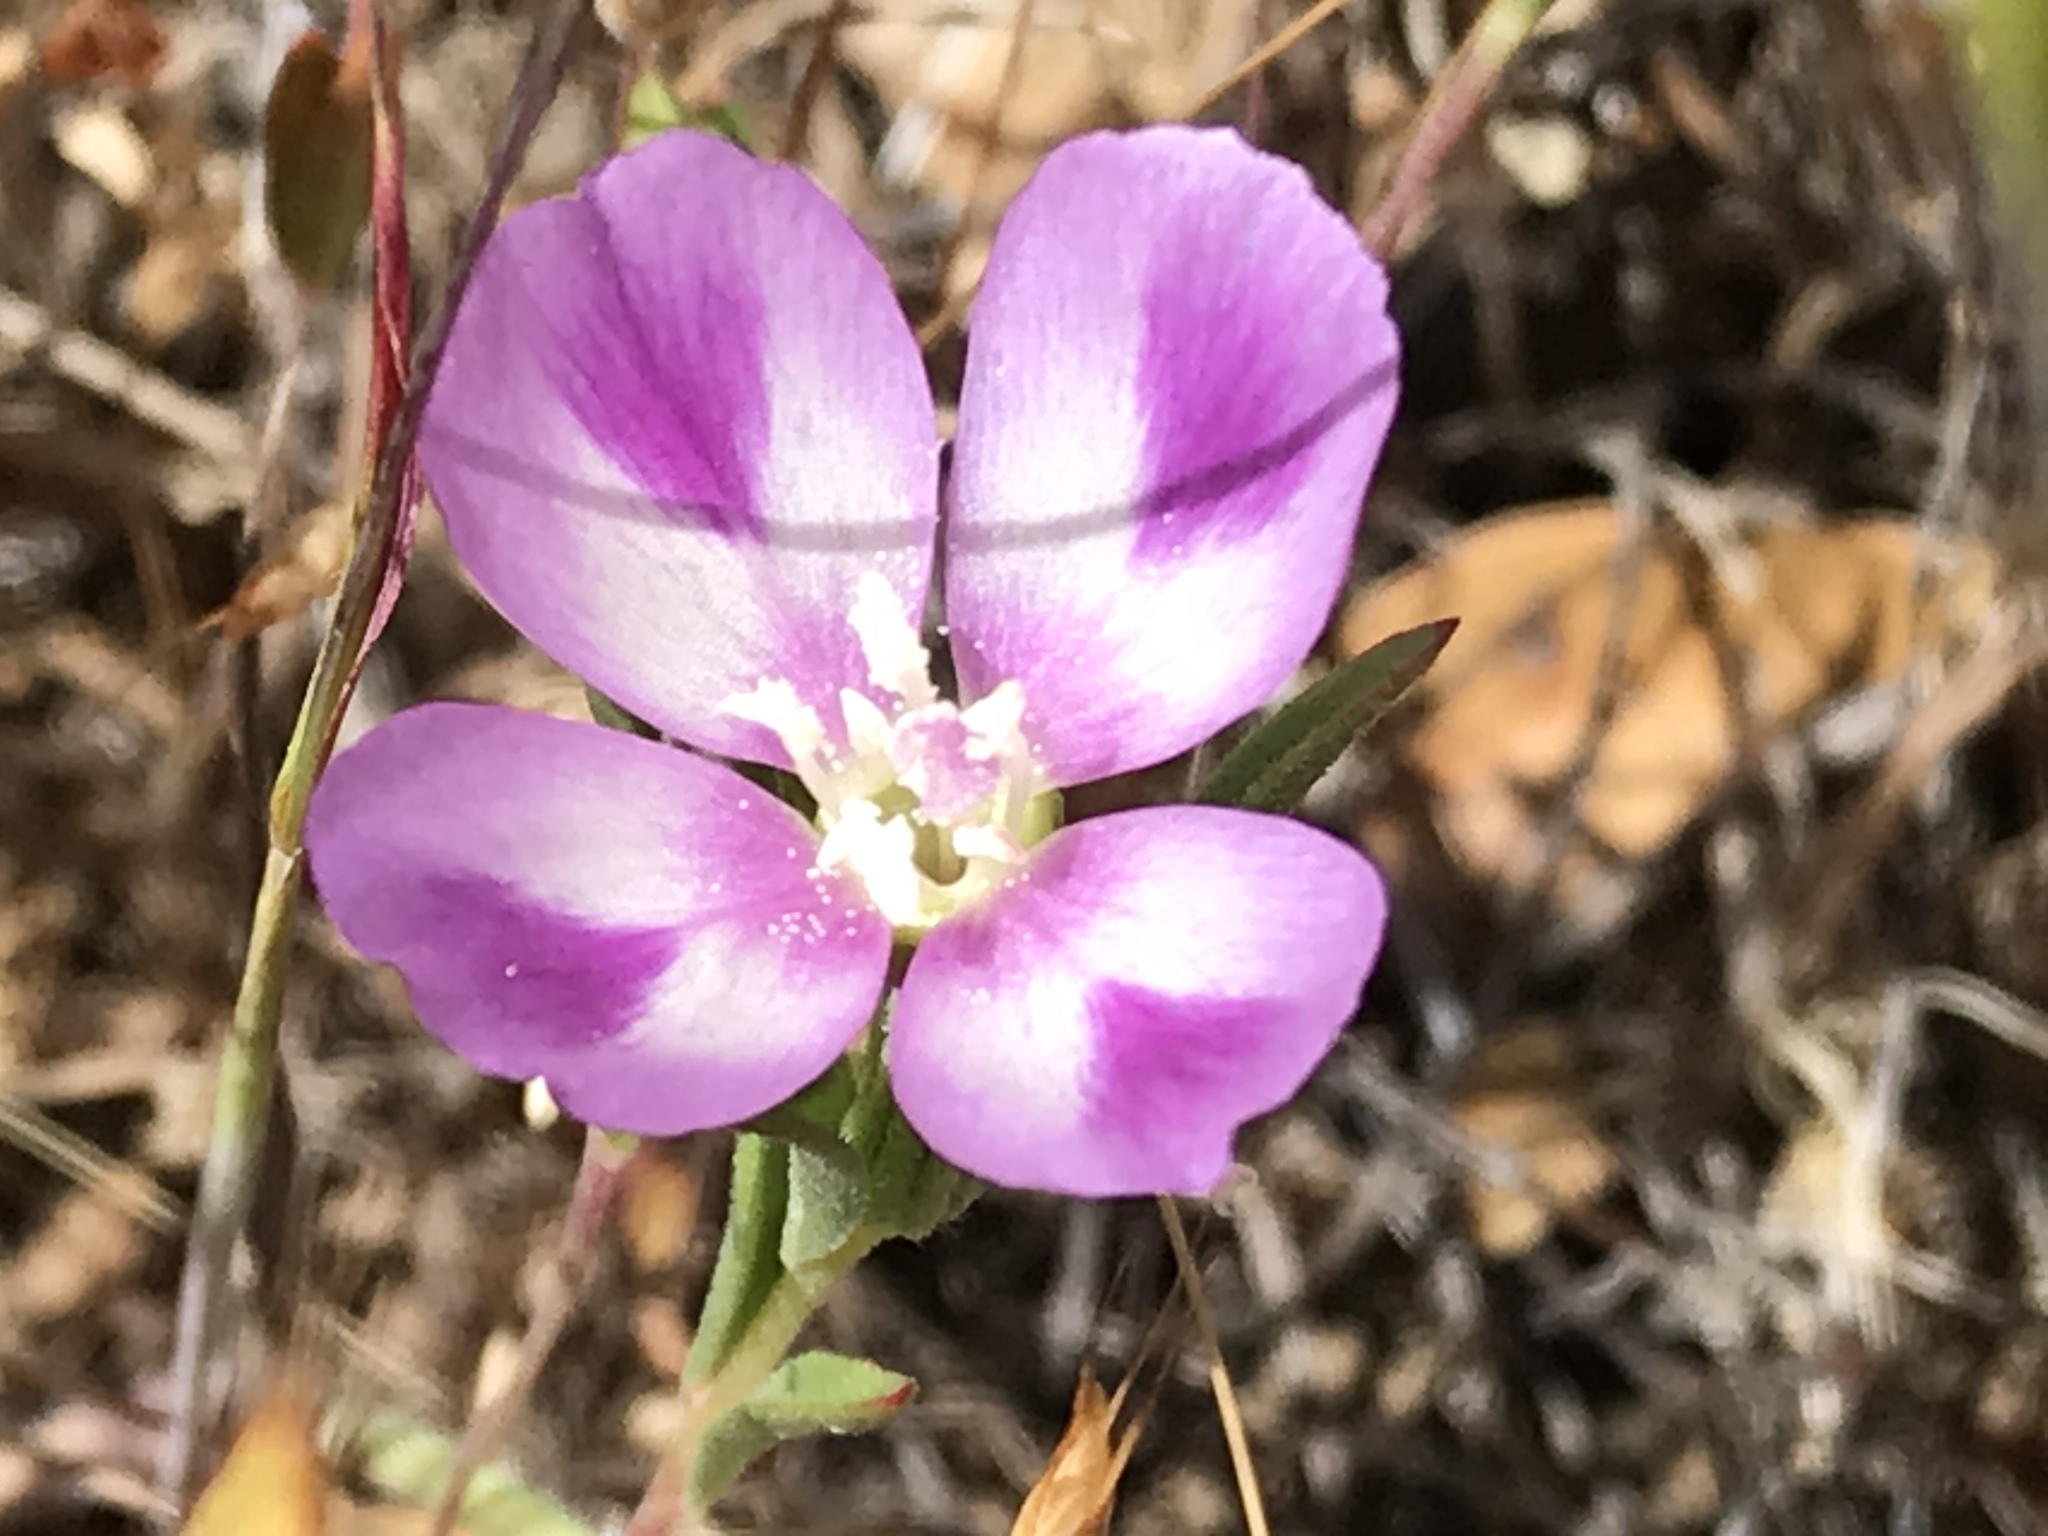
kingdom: Plantae
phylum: Tracheophyta
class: Magnoliopsida
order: Myrtales
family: Onagraceae
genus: Clarkia
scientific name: Clarkia purpurea
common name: Purple clarkia
